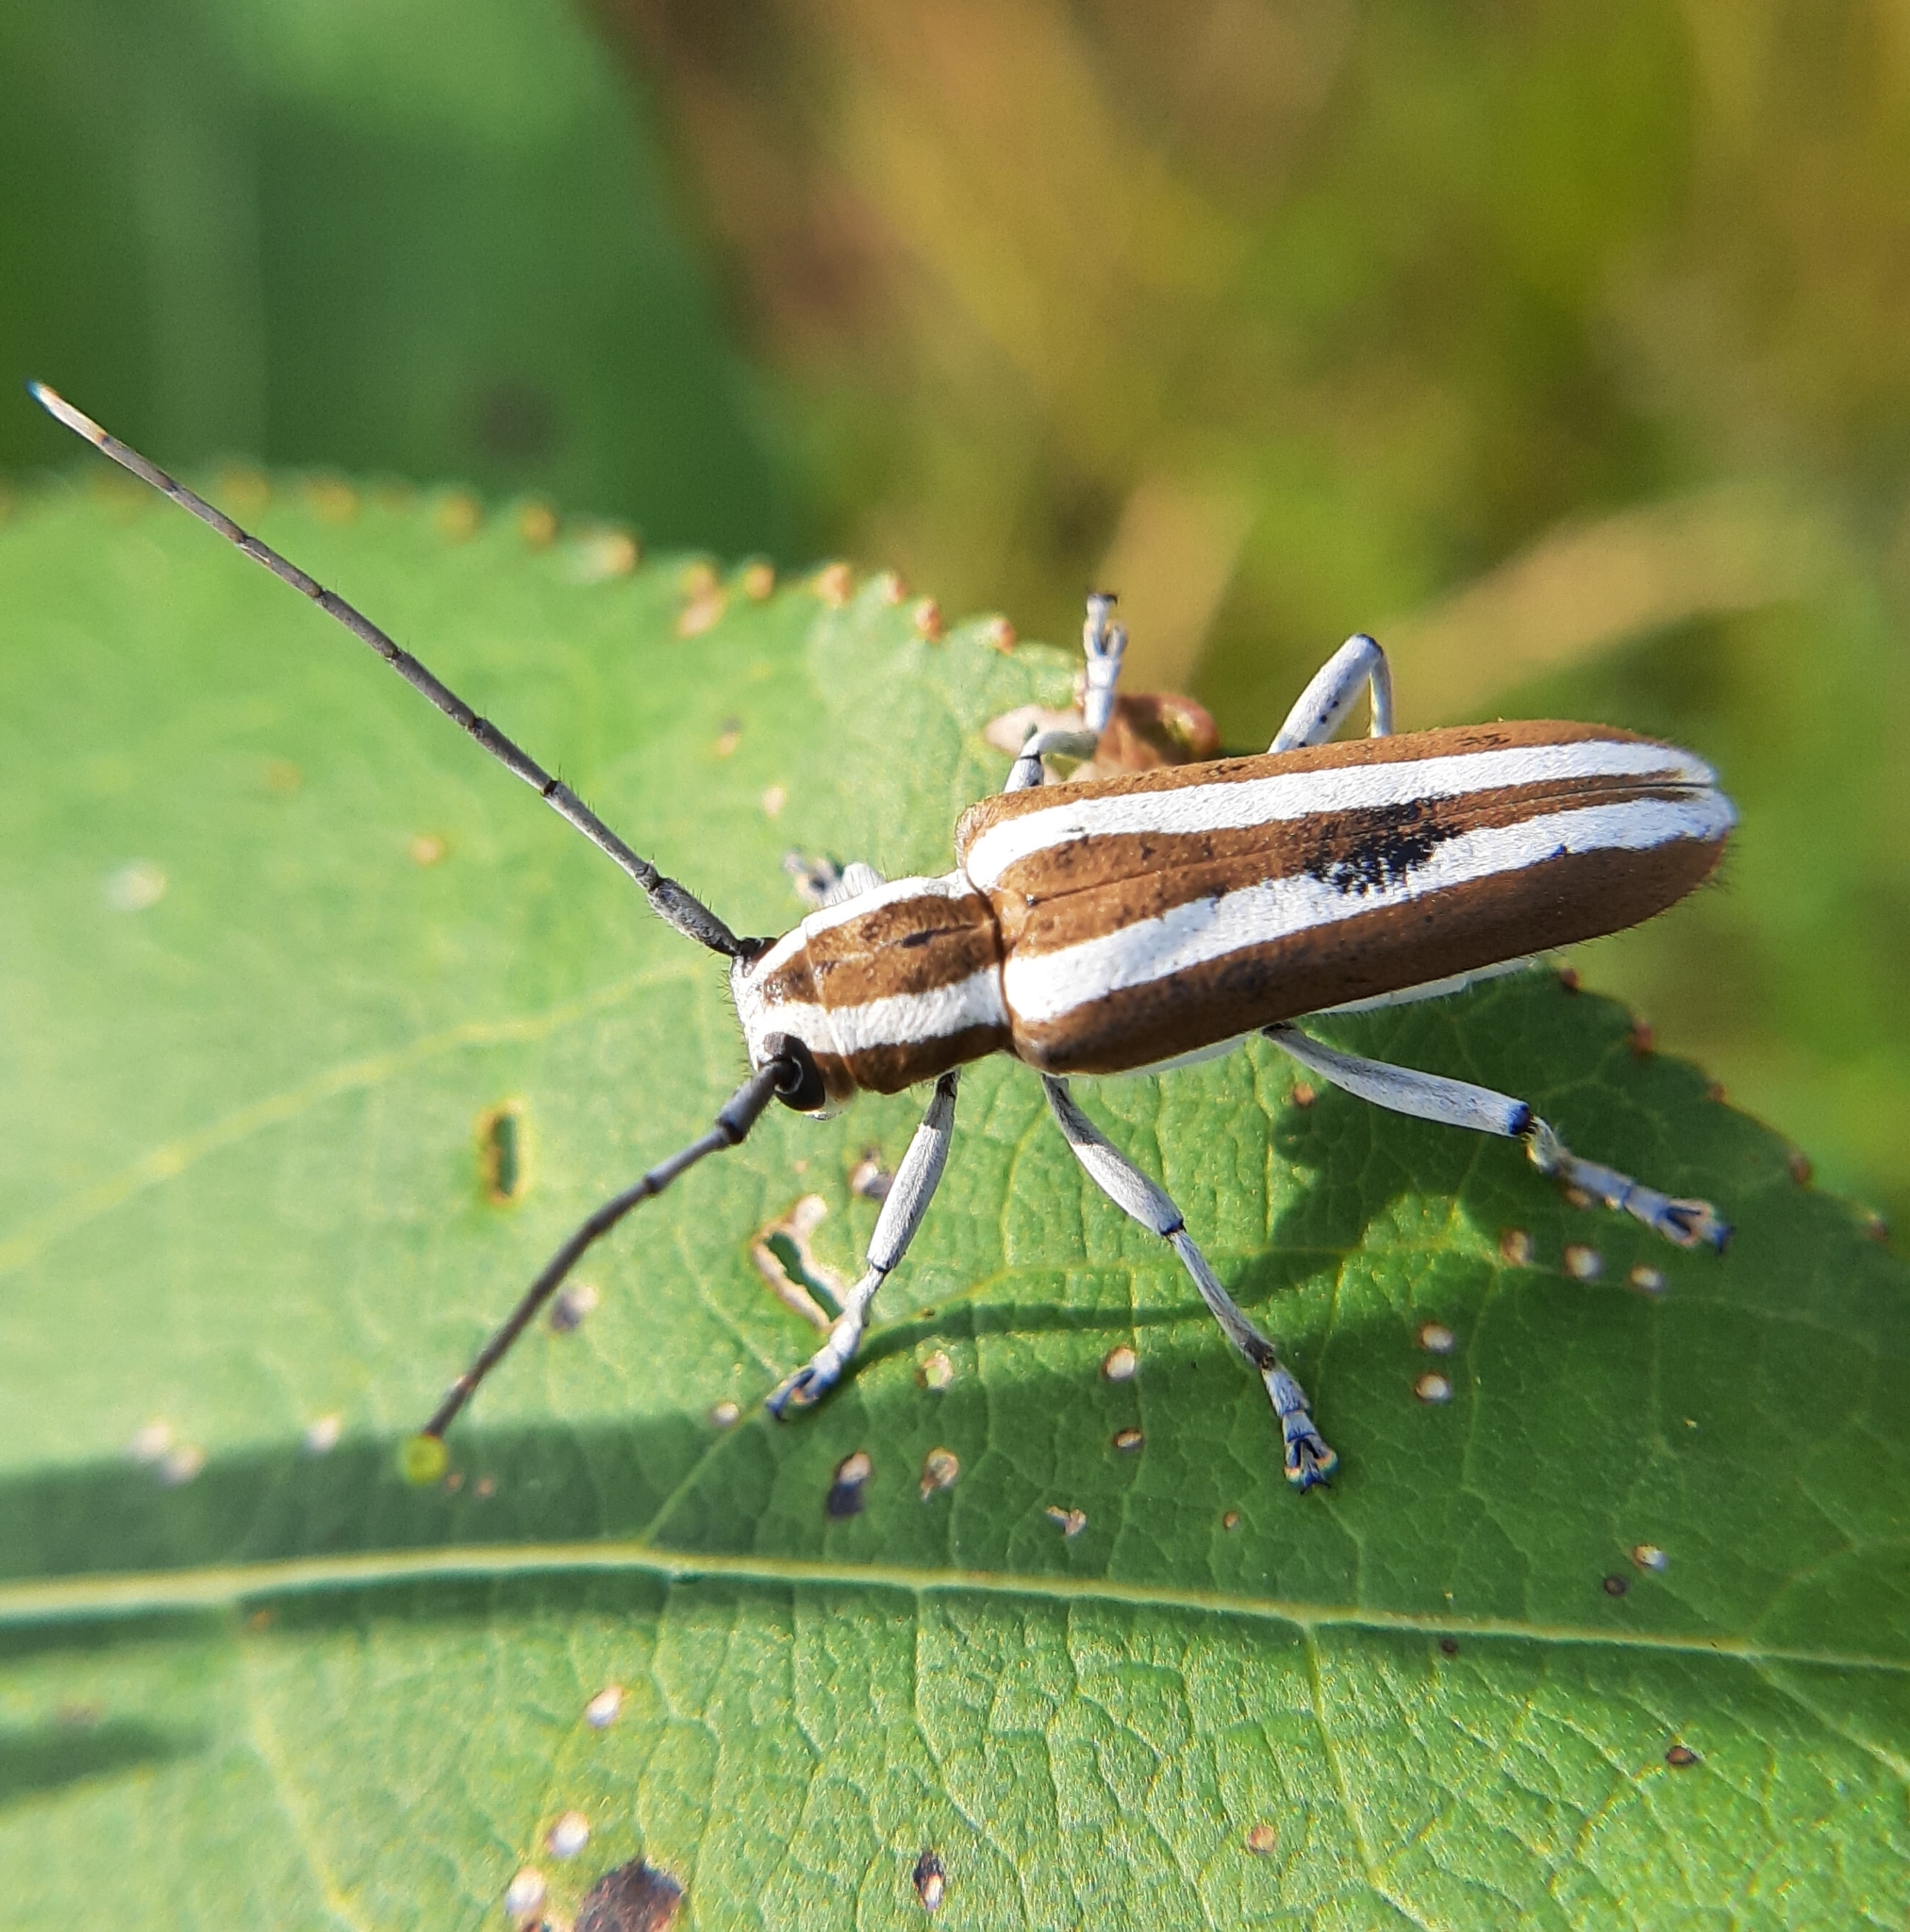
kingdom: Animalia
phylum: Arthropoda
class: Insecta
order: Coleoptera
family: Cerambycidae
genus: Saperda
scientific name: Saperda candida
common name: Round-headed borer
